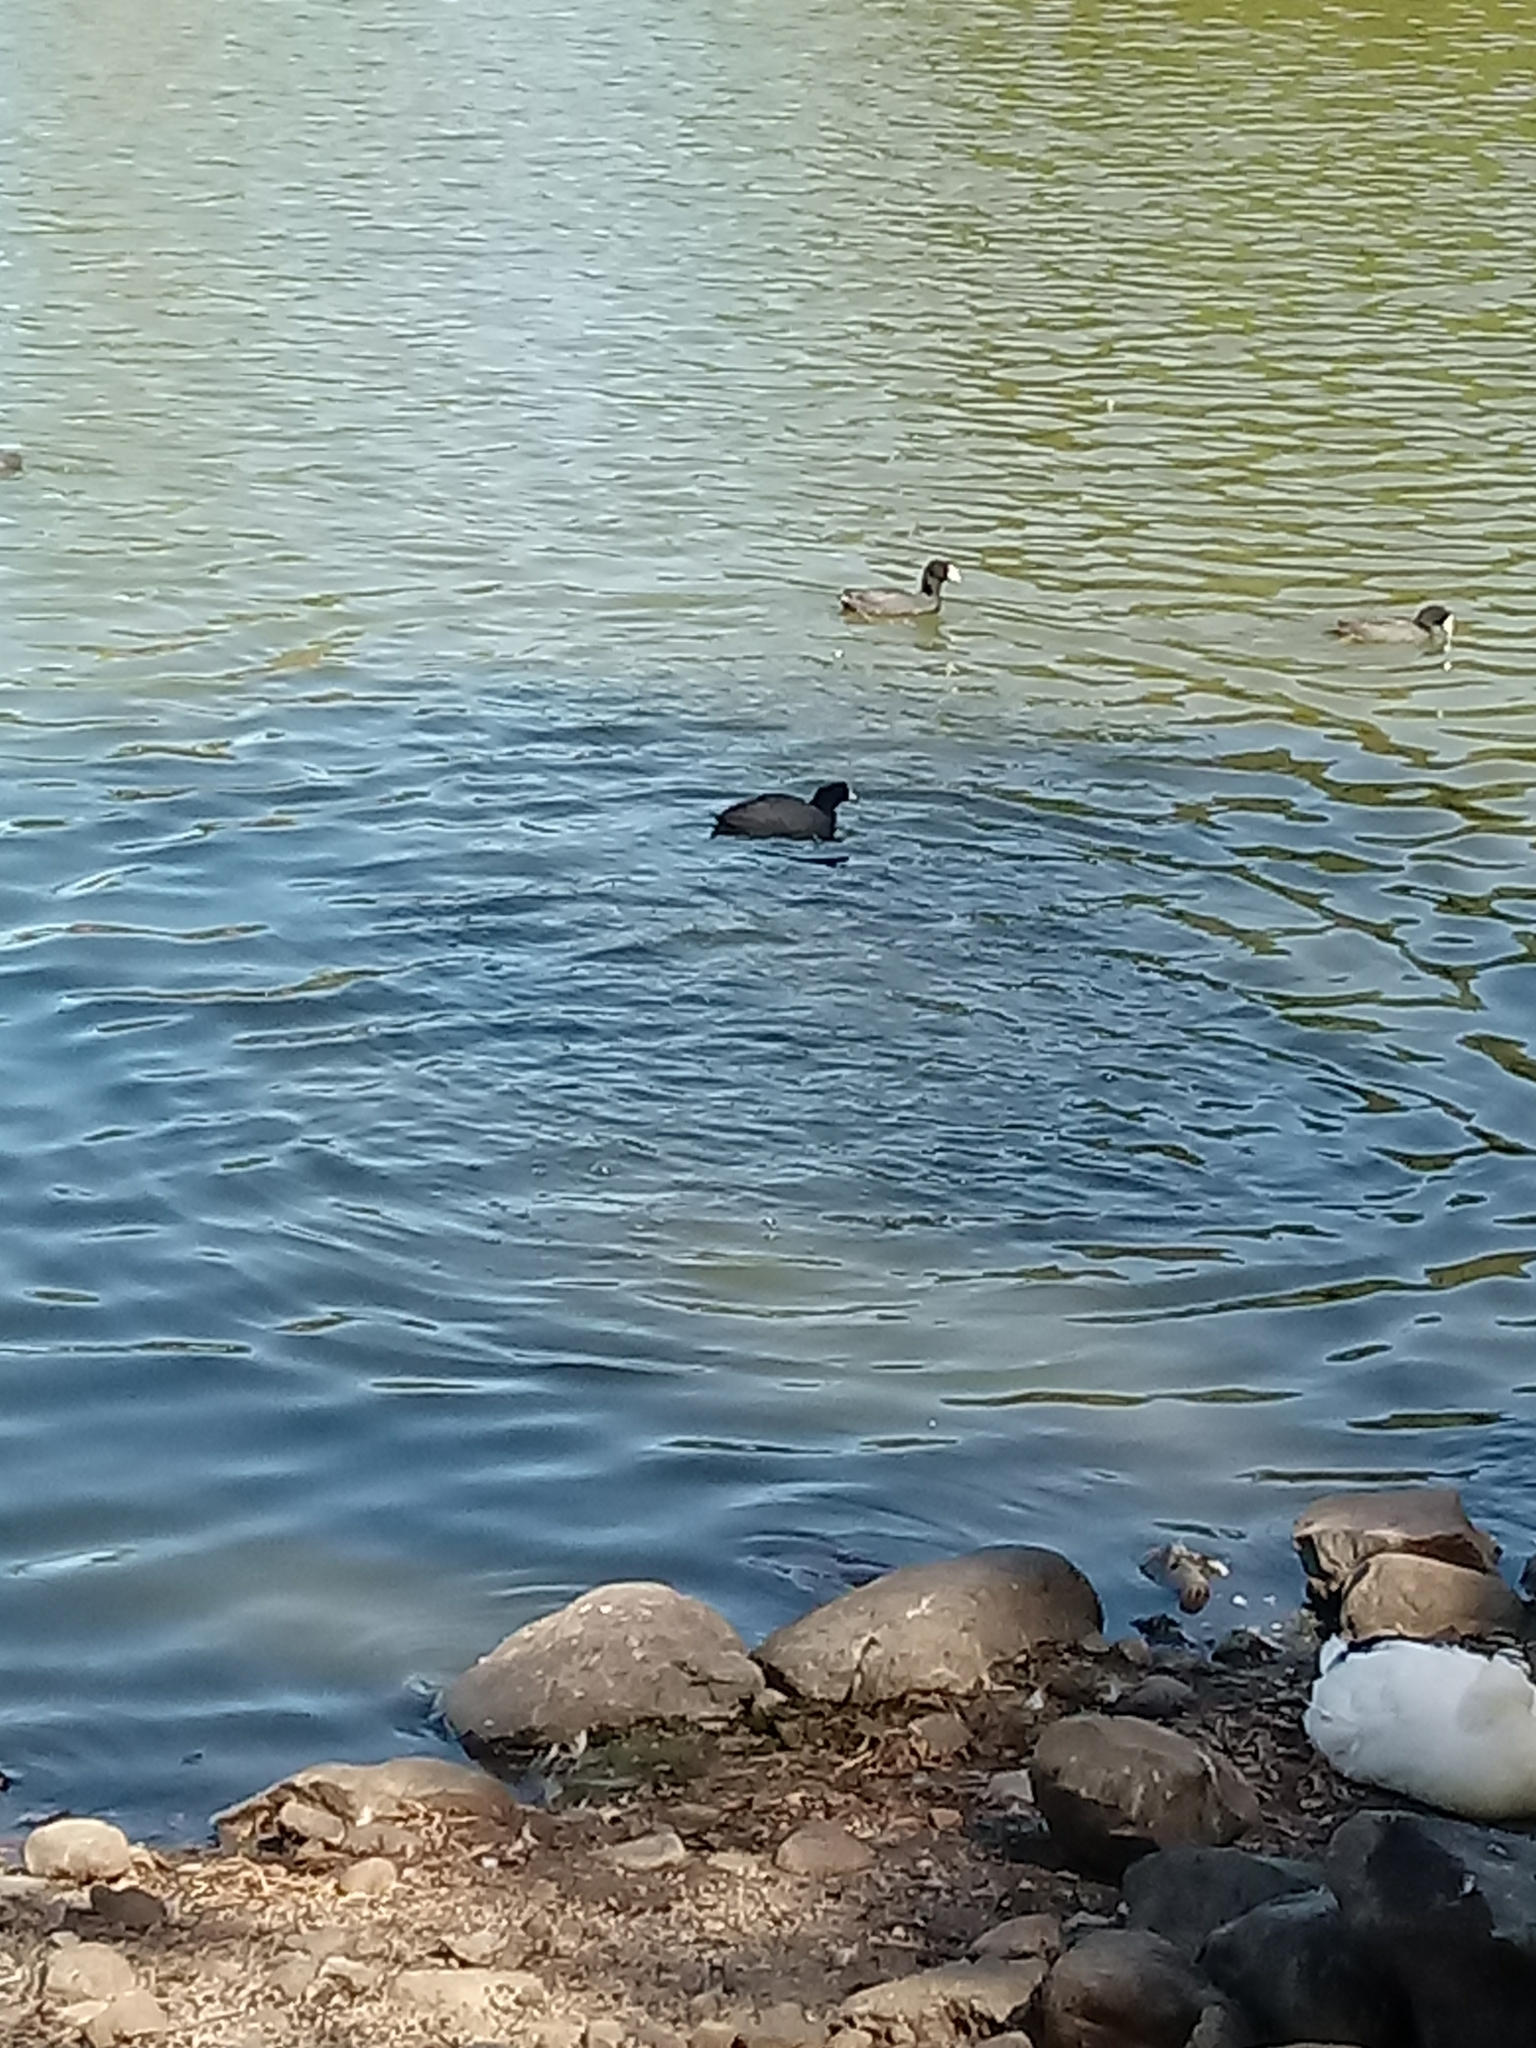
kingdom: Animalia
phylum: Chordata
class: Aves
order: Gruiformes
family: Rallidae
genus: Fulica
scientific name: Fulica americana
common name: American coot
